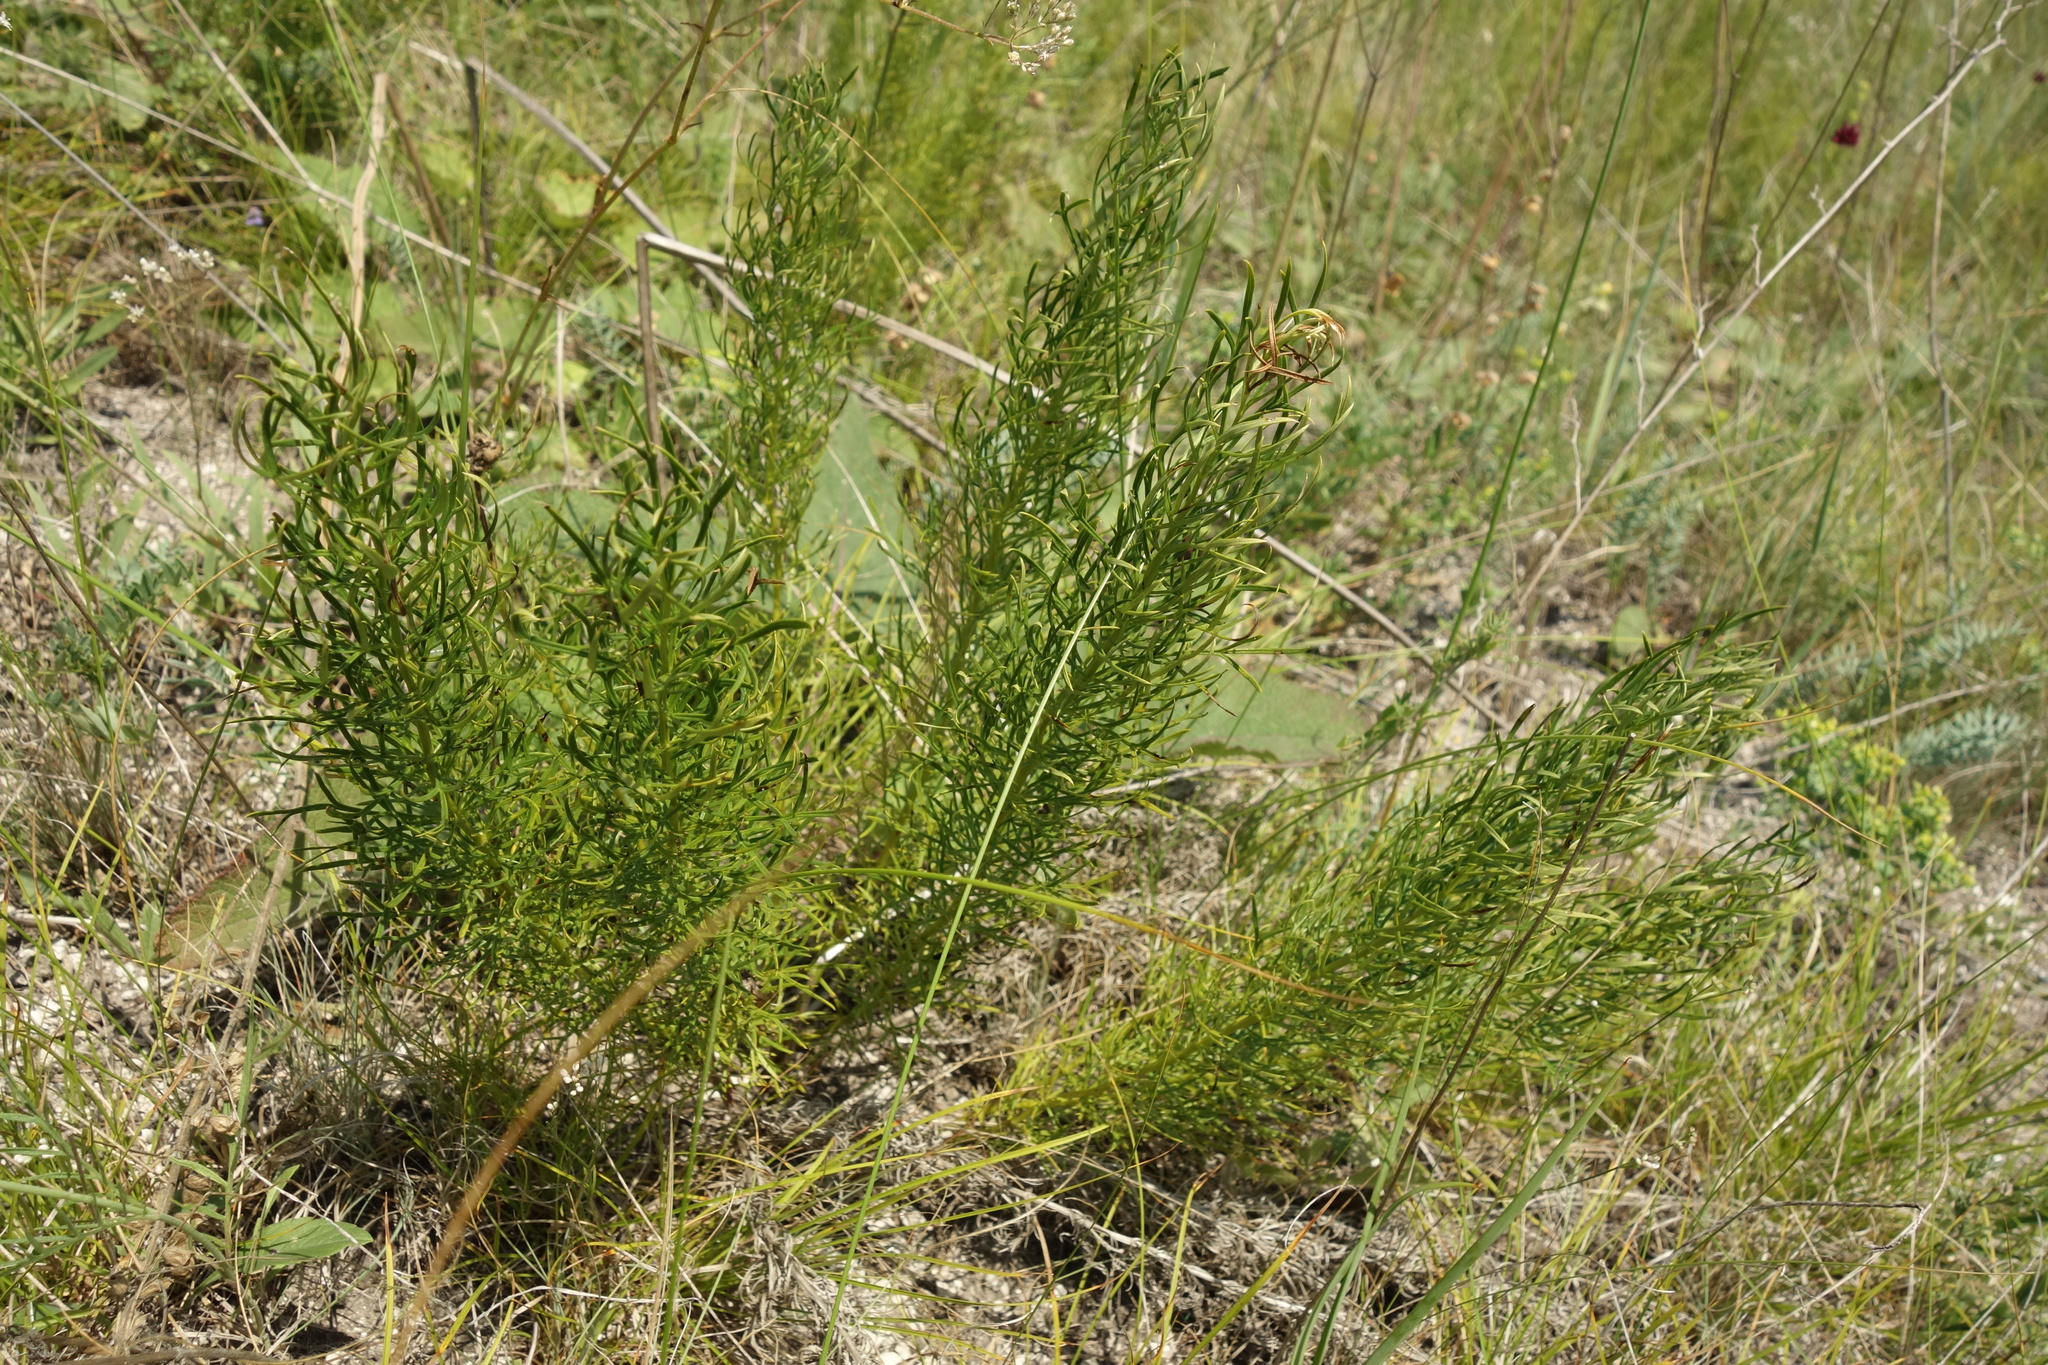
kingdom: Plantae
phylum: Tracheophyta
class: Magnoliopsida
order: Ranunculales
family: Ranunculaceae
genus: Adonis
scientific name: Adonis vernalis
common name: Yellow pheasants-eye
